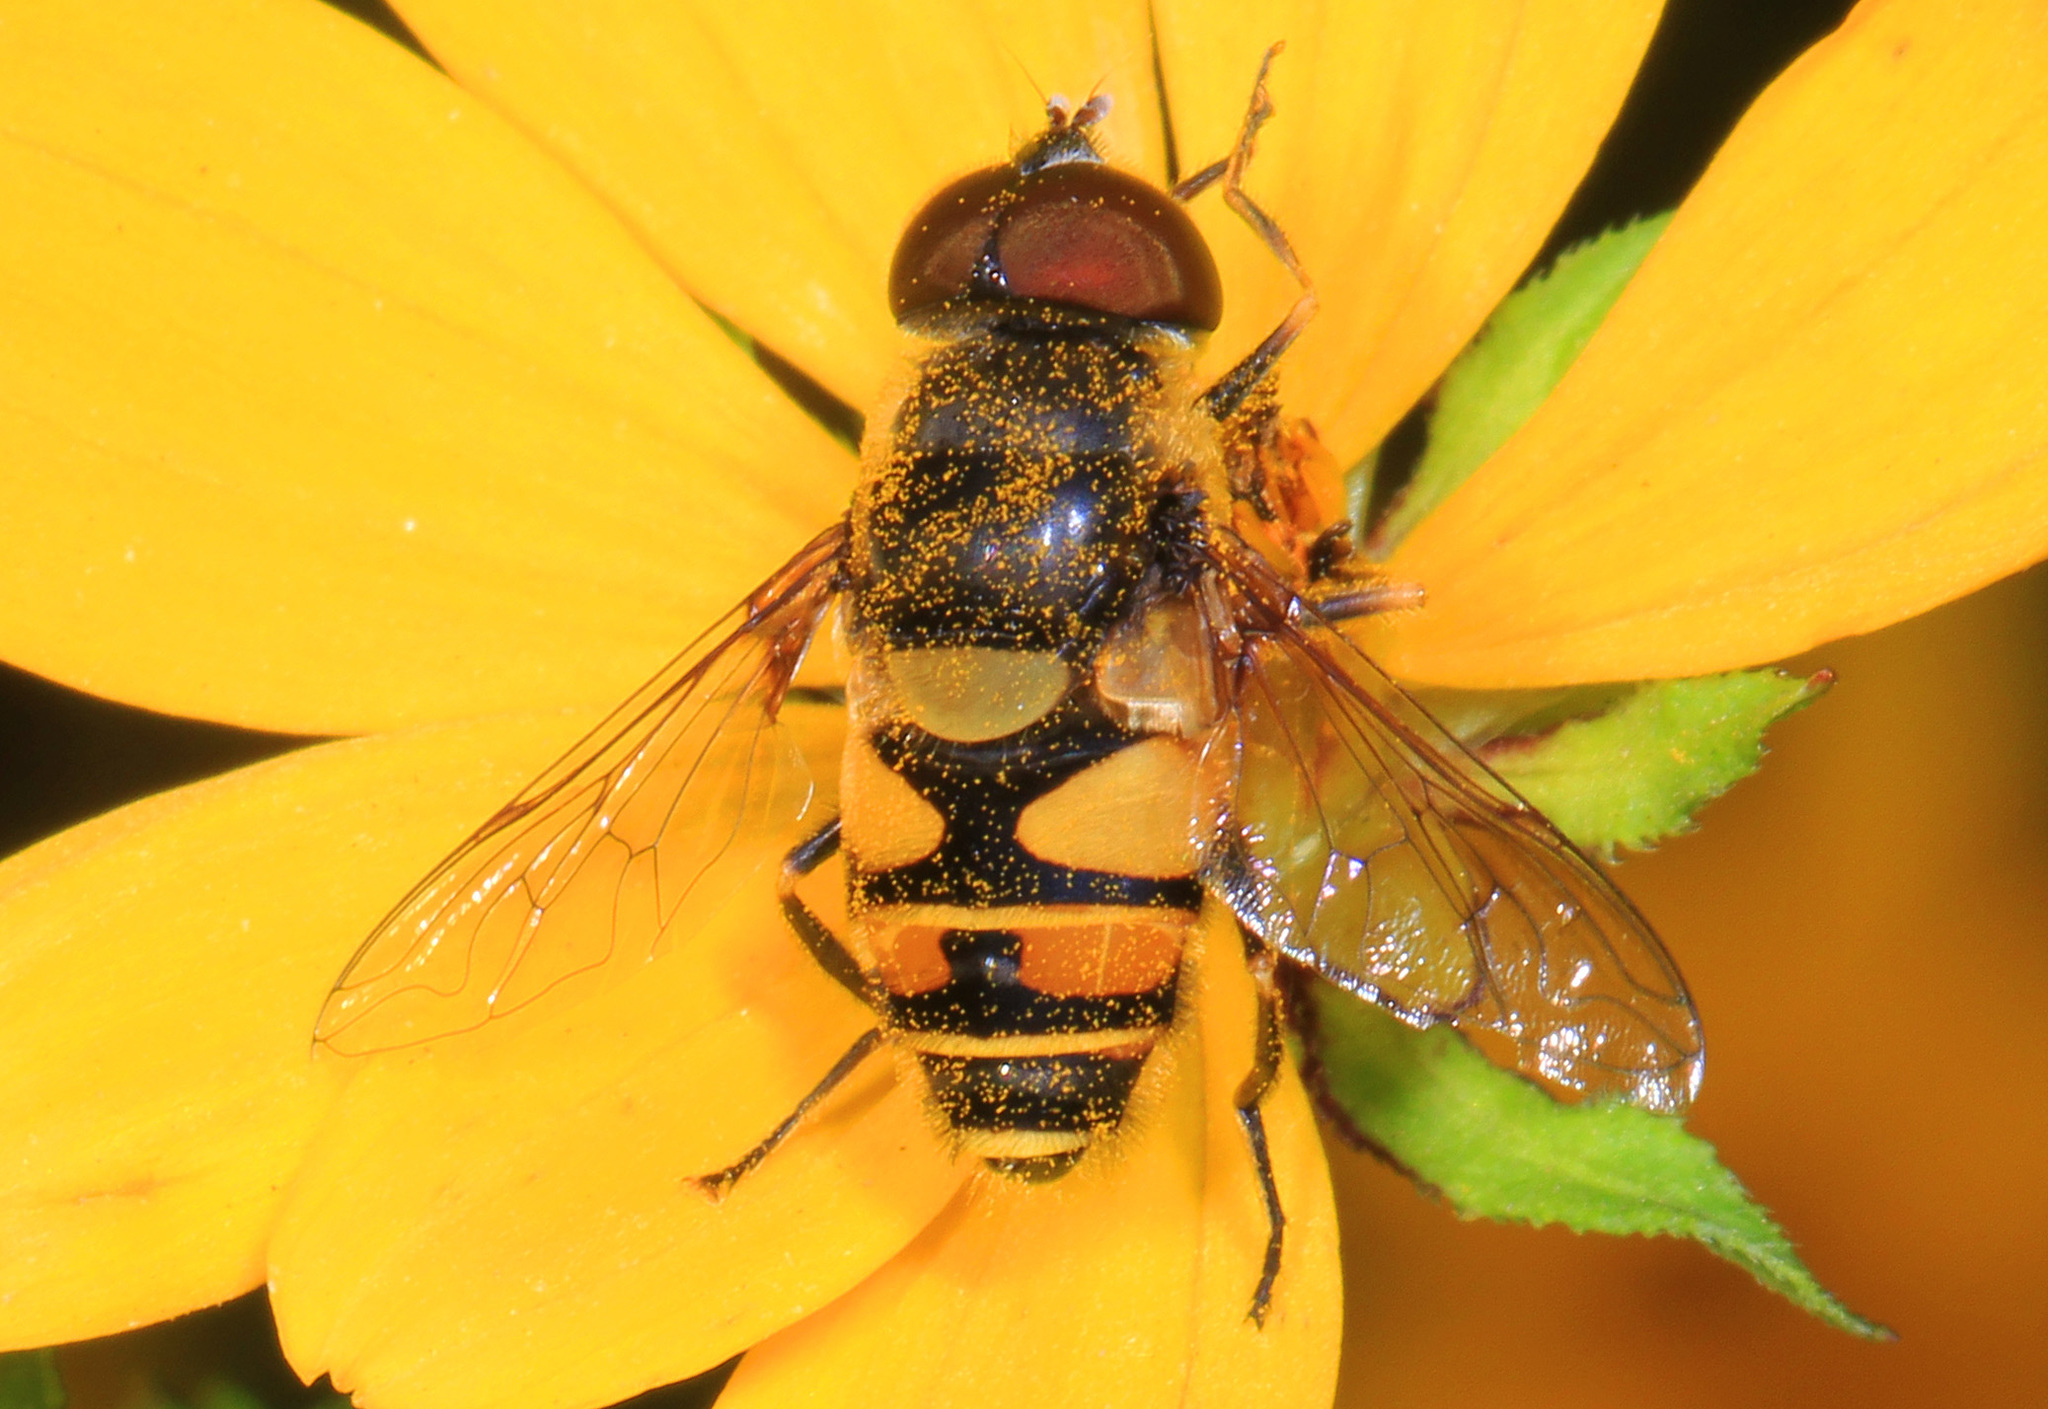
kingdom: Animalia
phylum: Arthropoda
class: Insecta
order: Diptera
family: Syrphidae
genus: Eristalis
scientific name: Eristalis transversa
